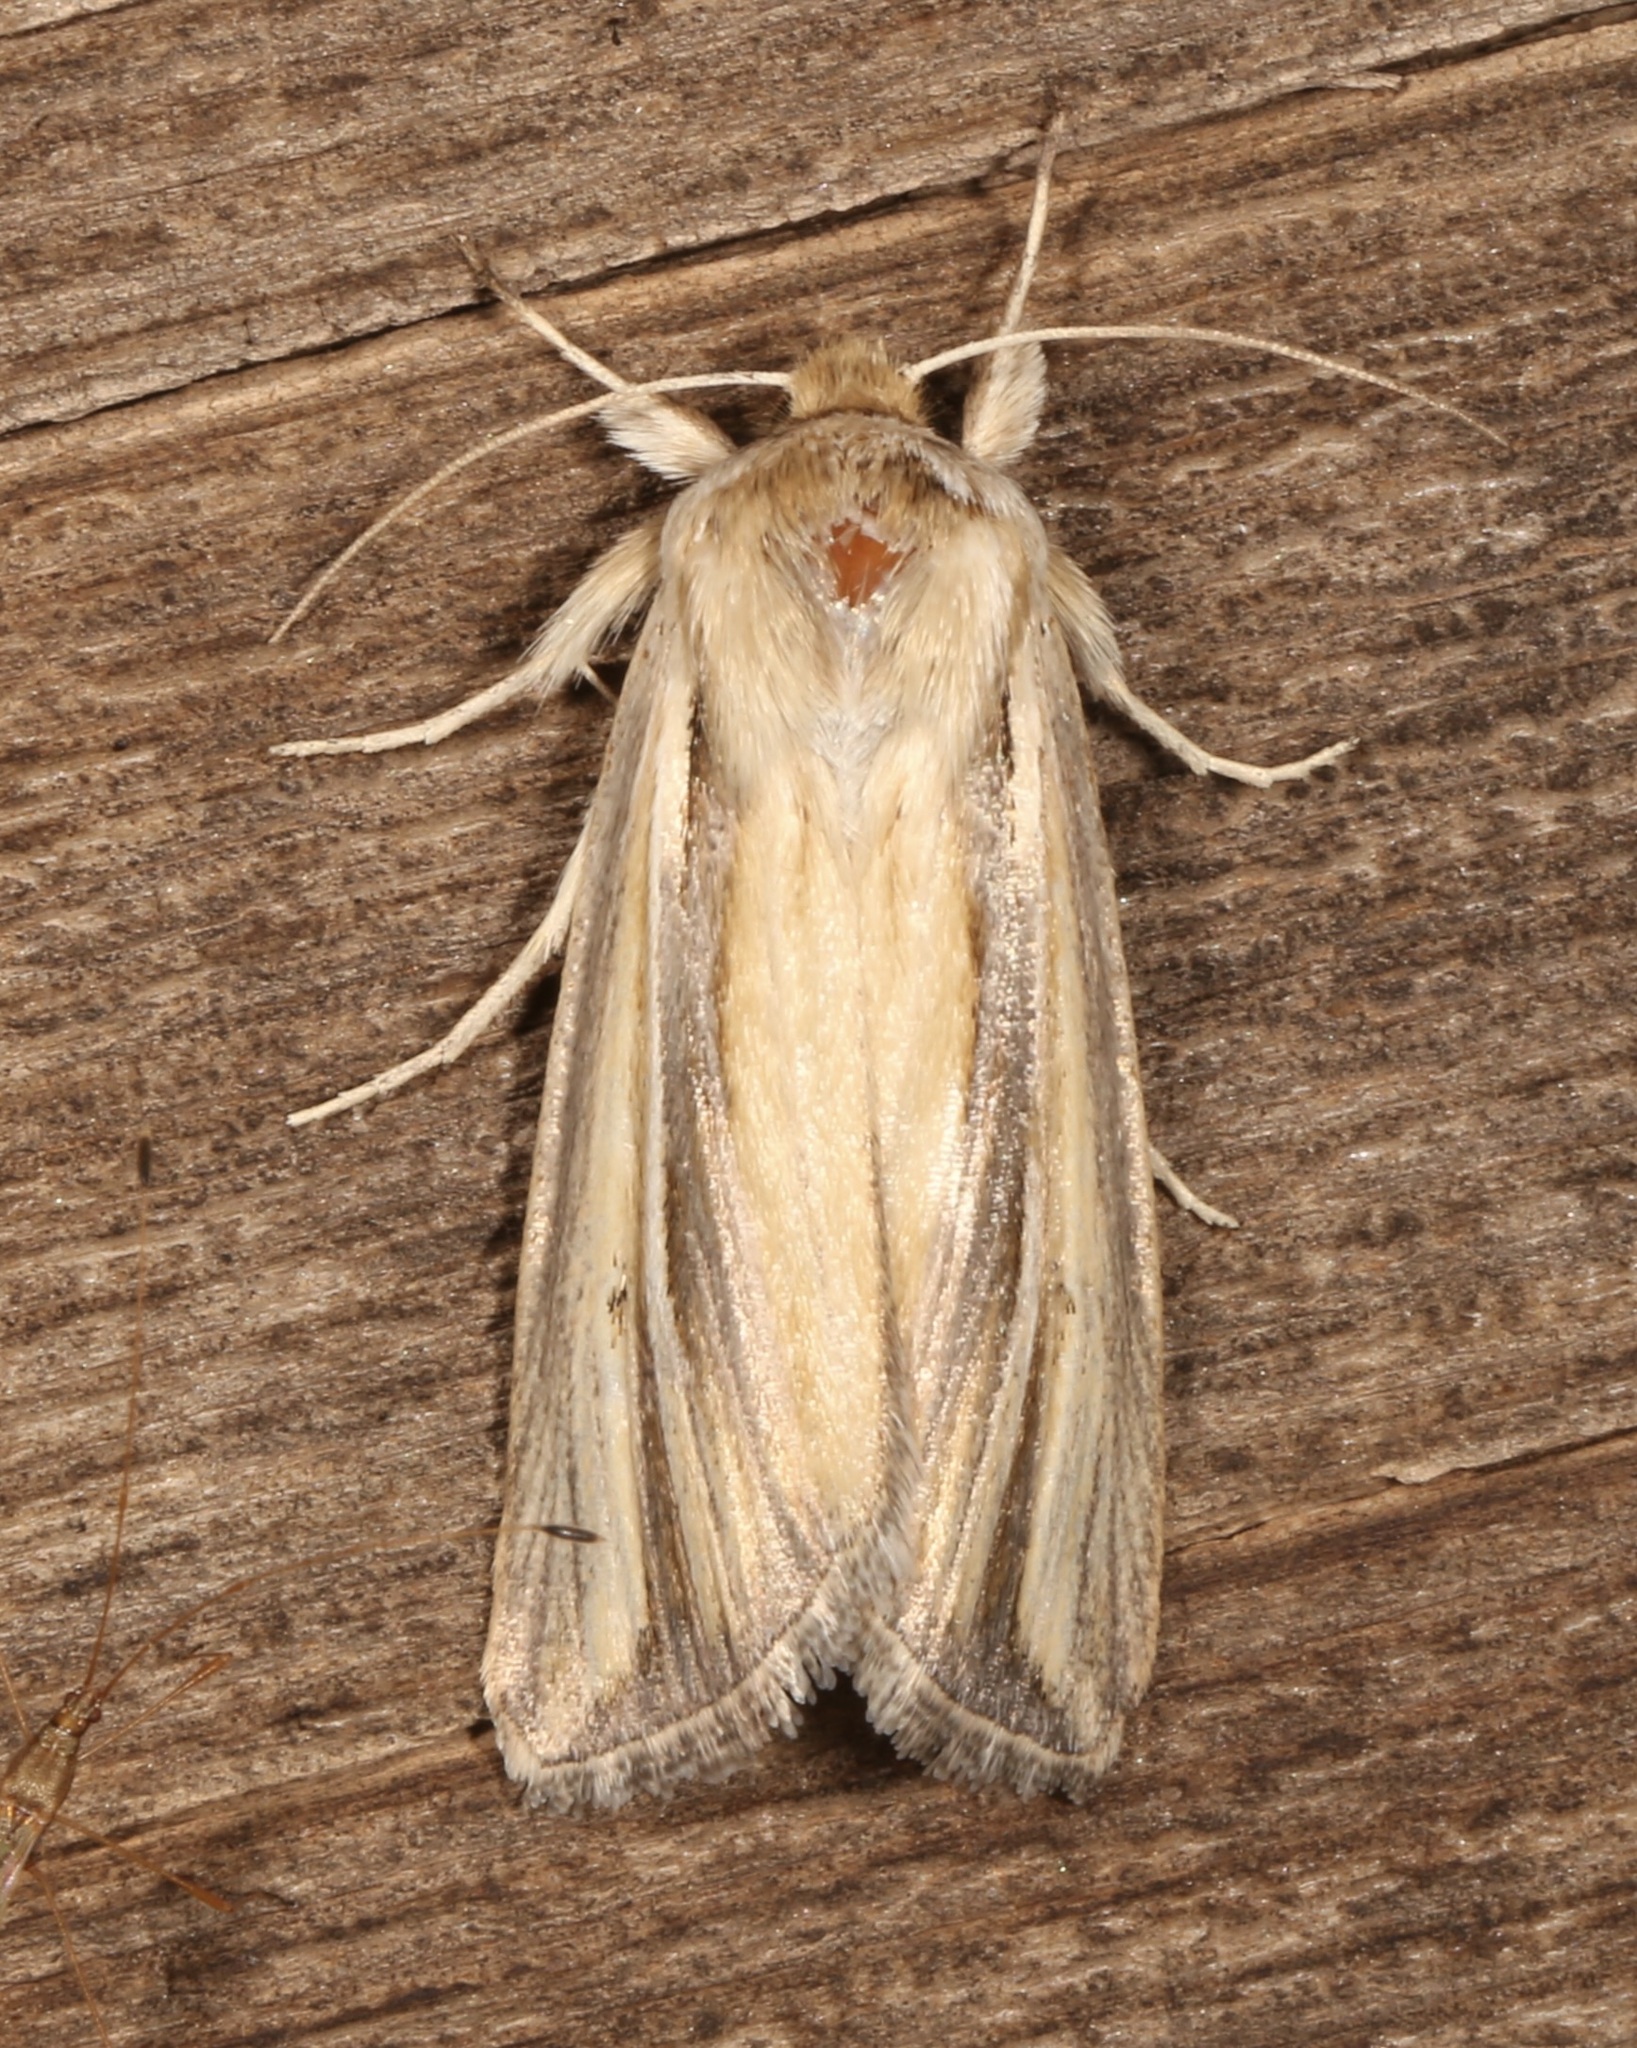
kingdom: Animalia
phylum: Arthropoda
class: Insecta
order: Lepidoptera
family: Noctuidae
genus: Dargida
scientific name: Dargida diffusa
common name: Wheat head armyworm
